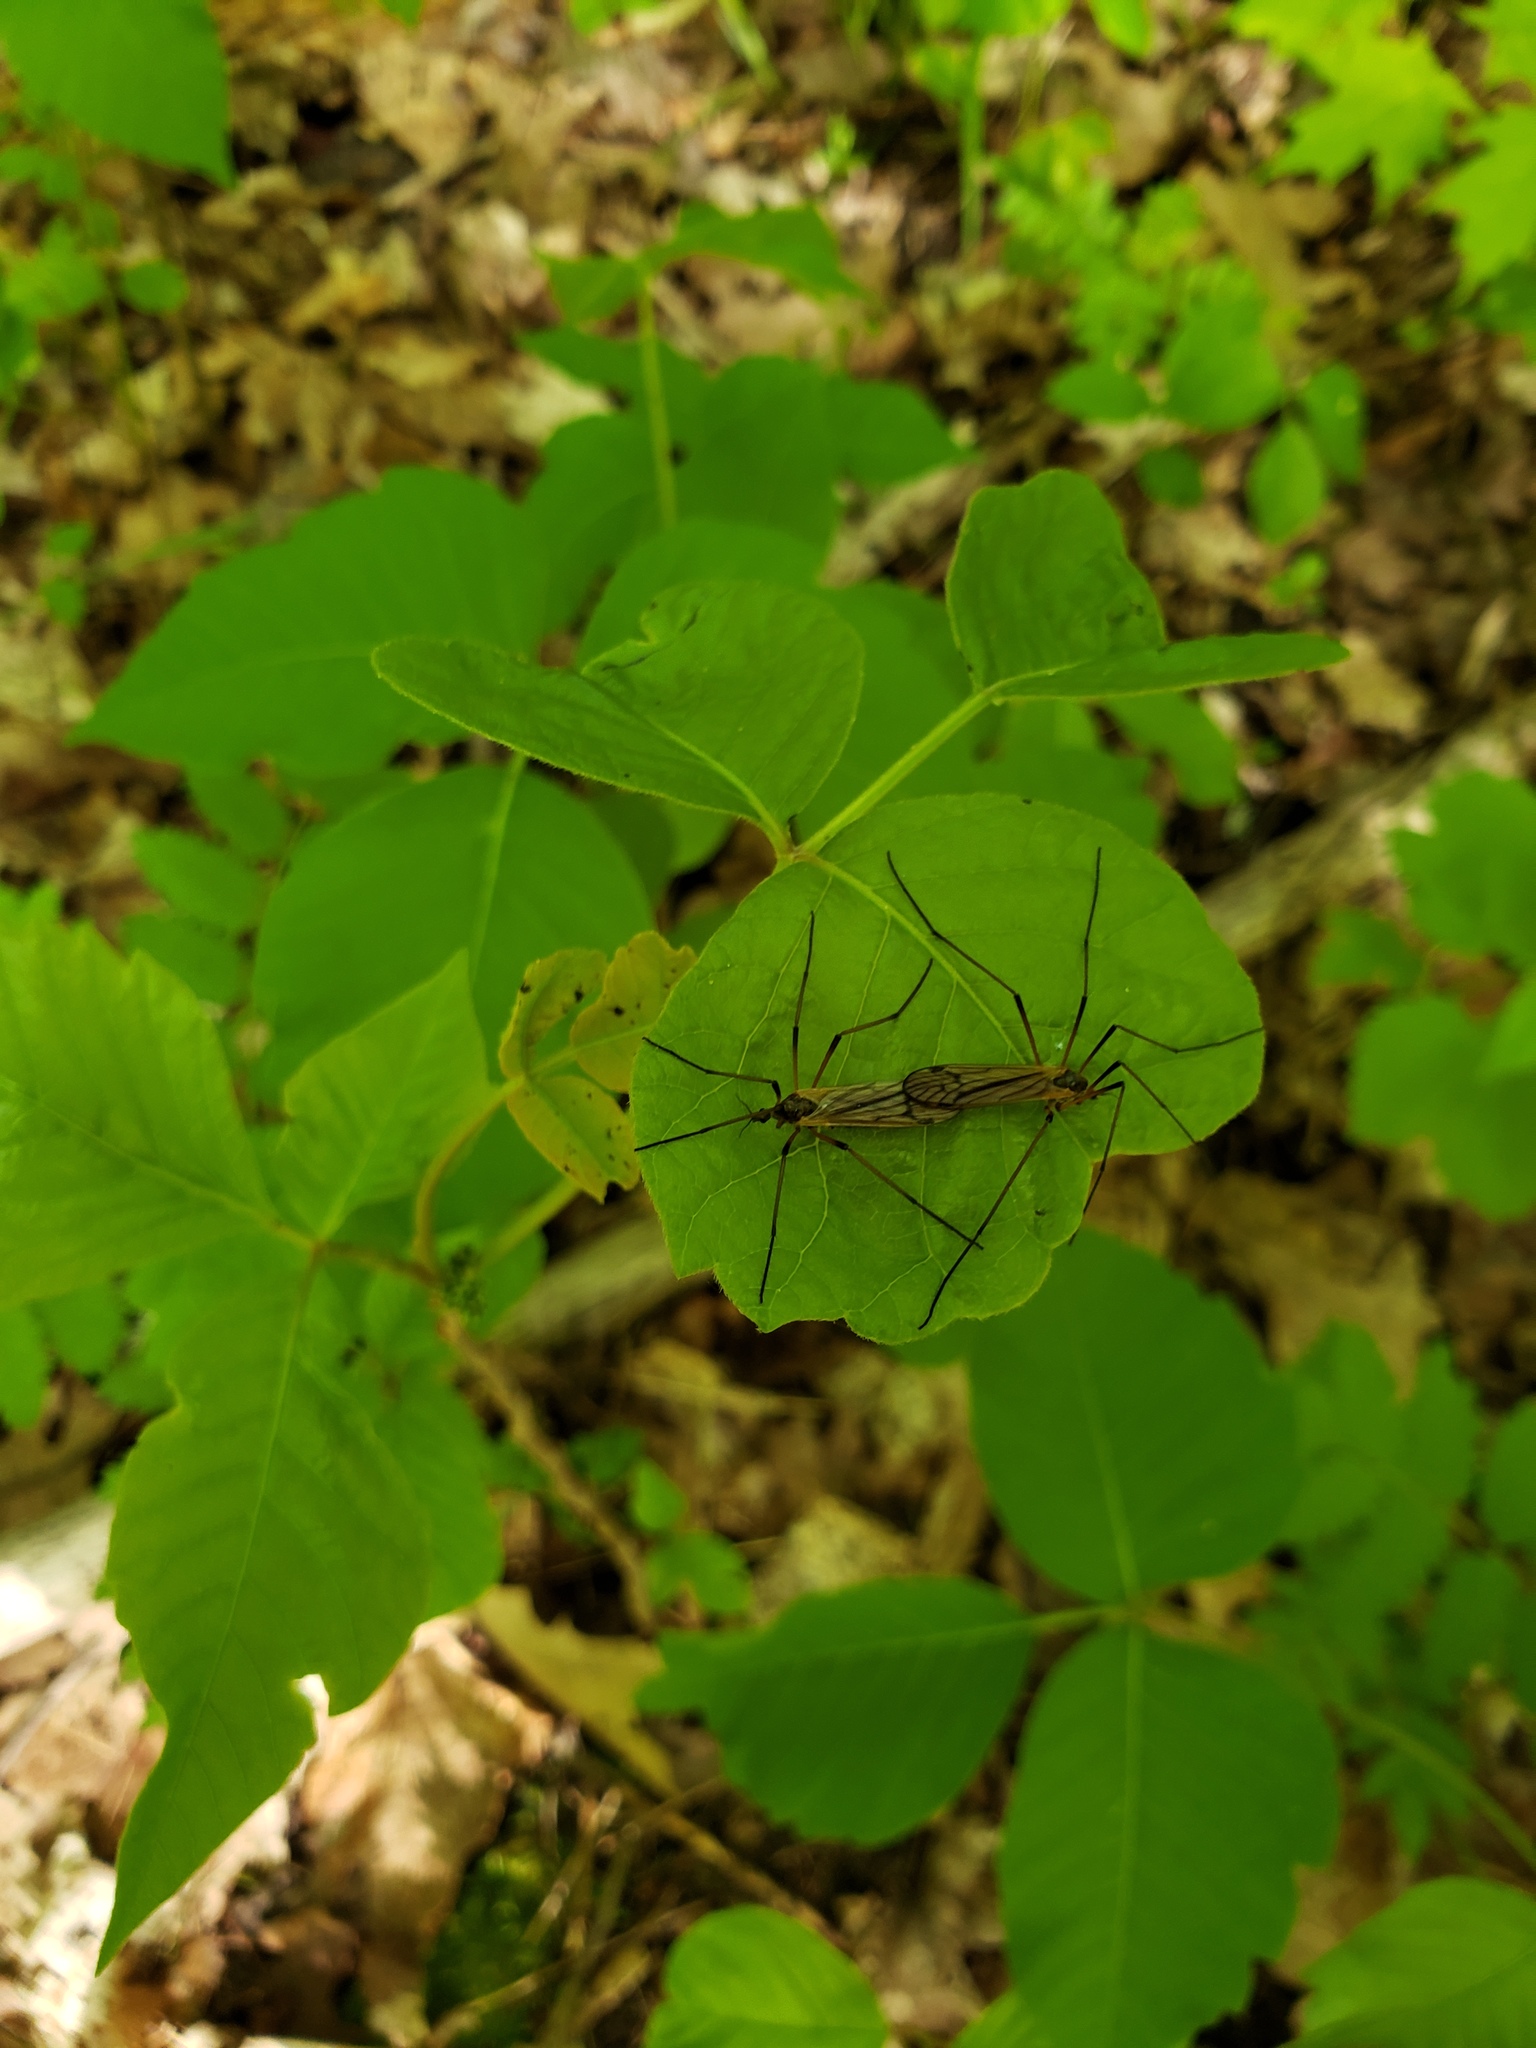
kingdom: Animalia
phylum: Arthropoda
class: Insecta
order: Diptera
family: Limoniidae
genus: Prionolabis
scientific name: Prionolabis rufibasis
